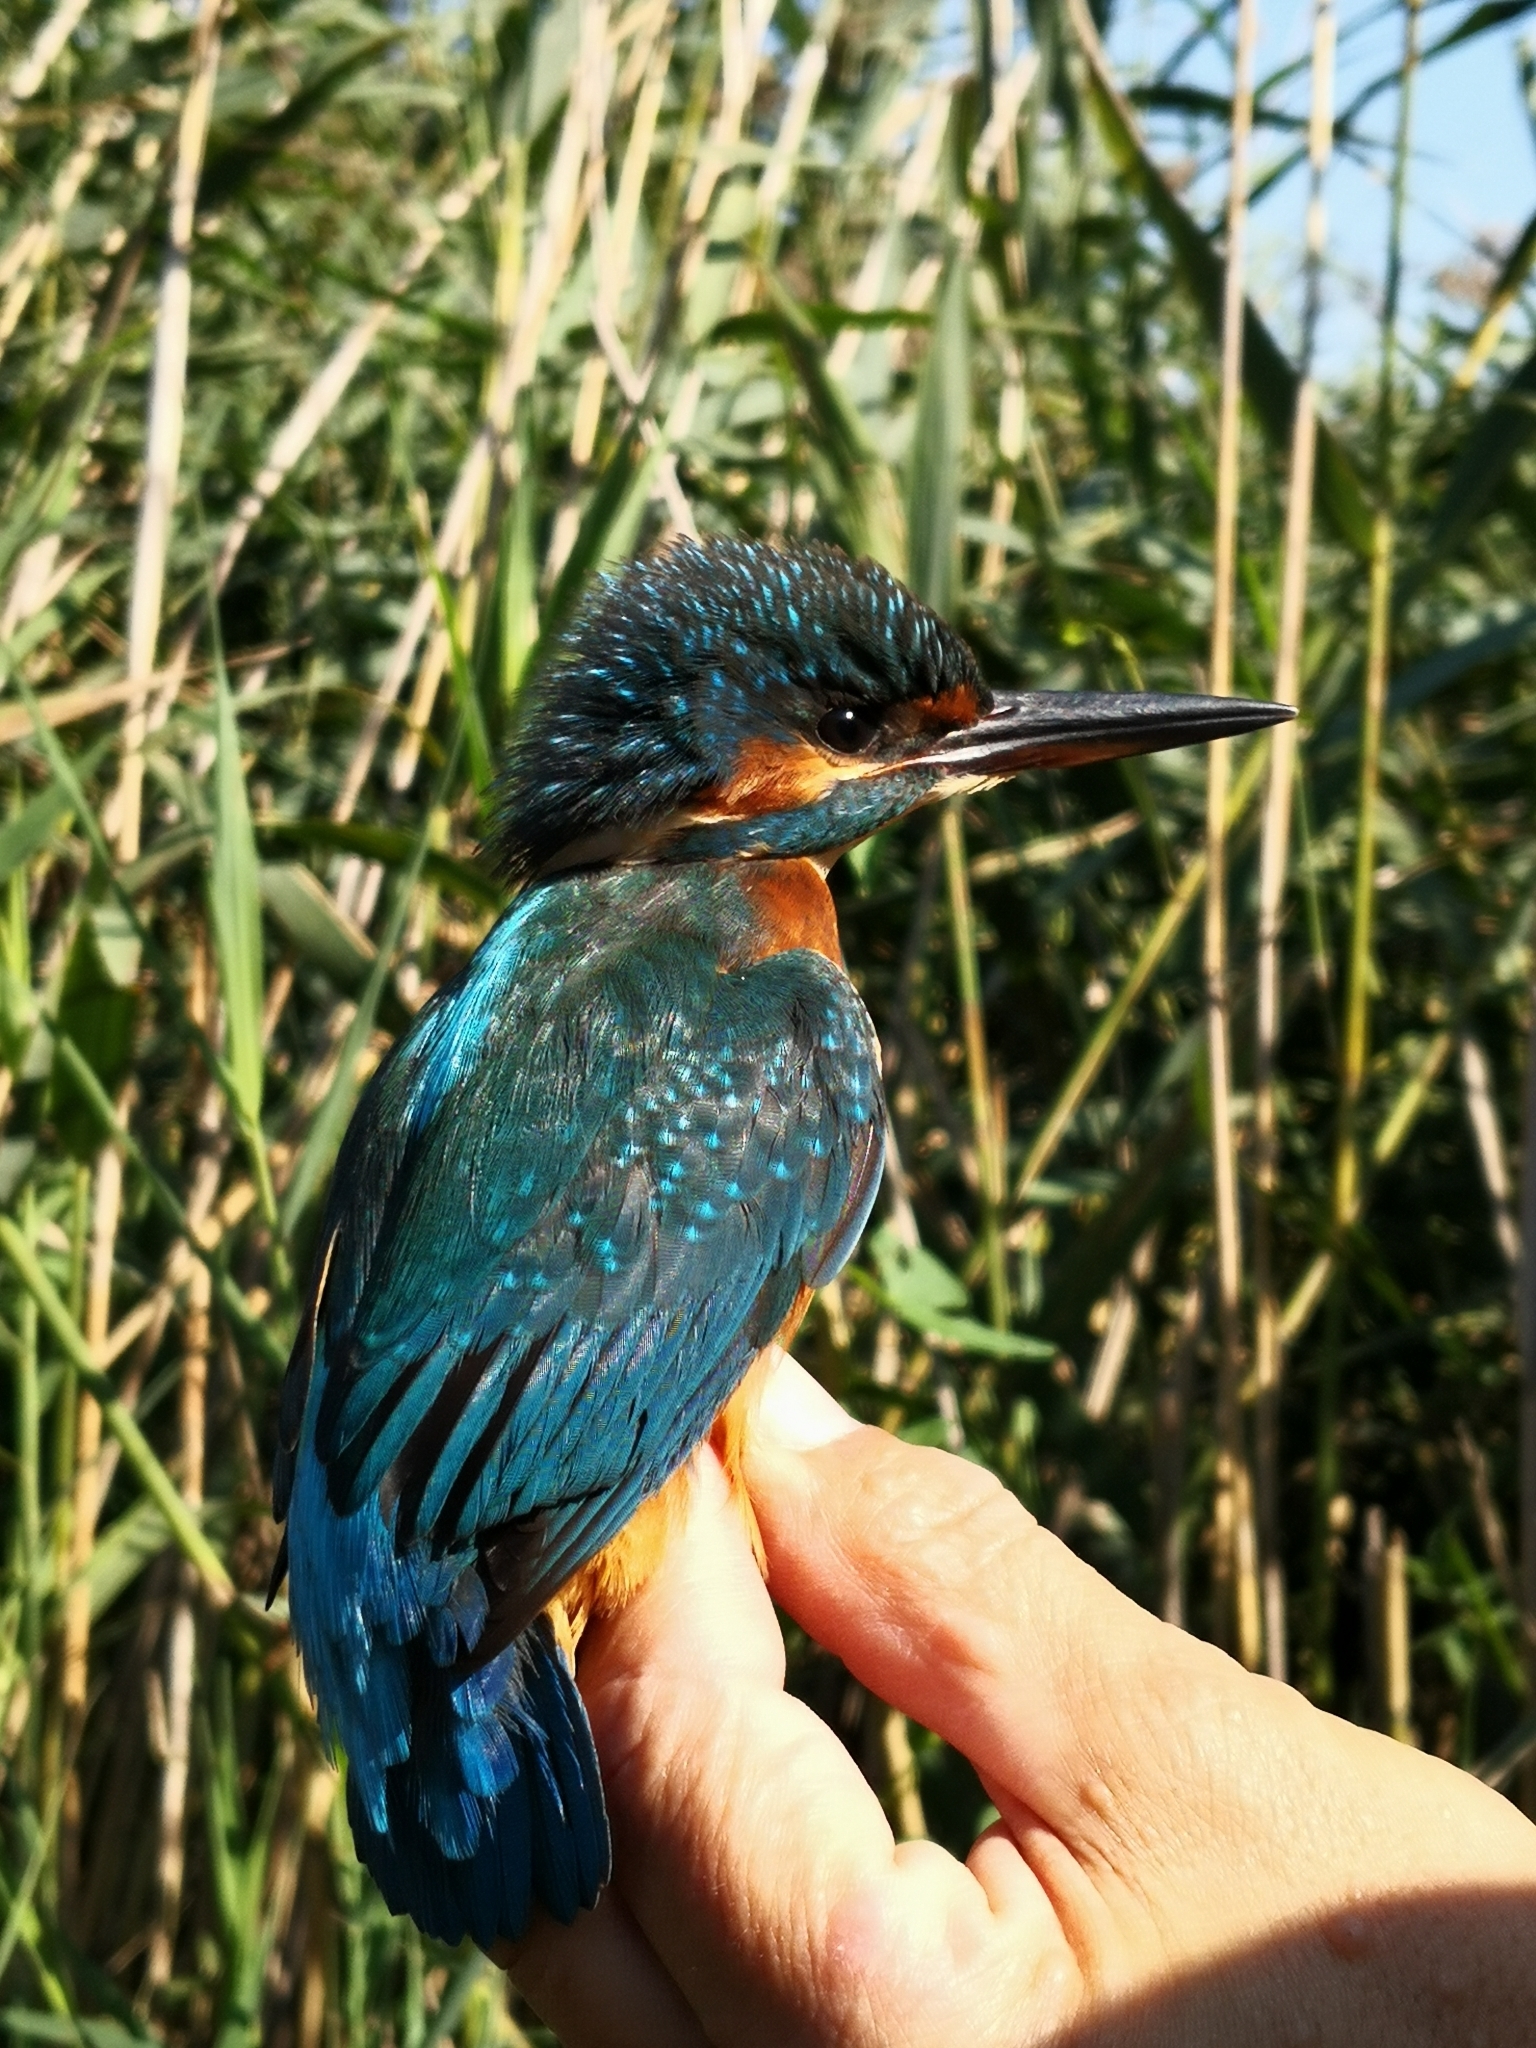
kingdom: Animalia
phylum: Chordata
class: Aves
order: Coraciiformes
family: Alcedinidae
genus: Alcedo
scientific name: Alcedo atthis
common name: Common kingfisher
